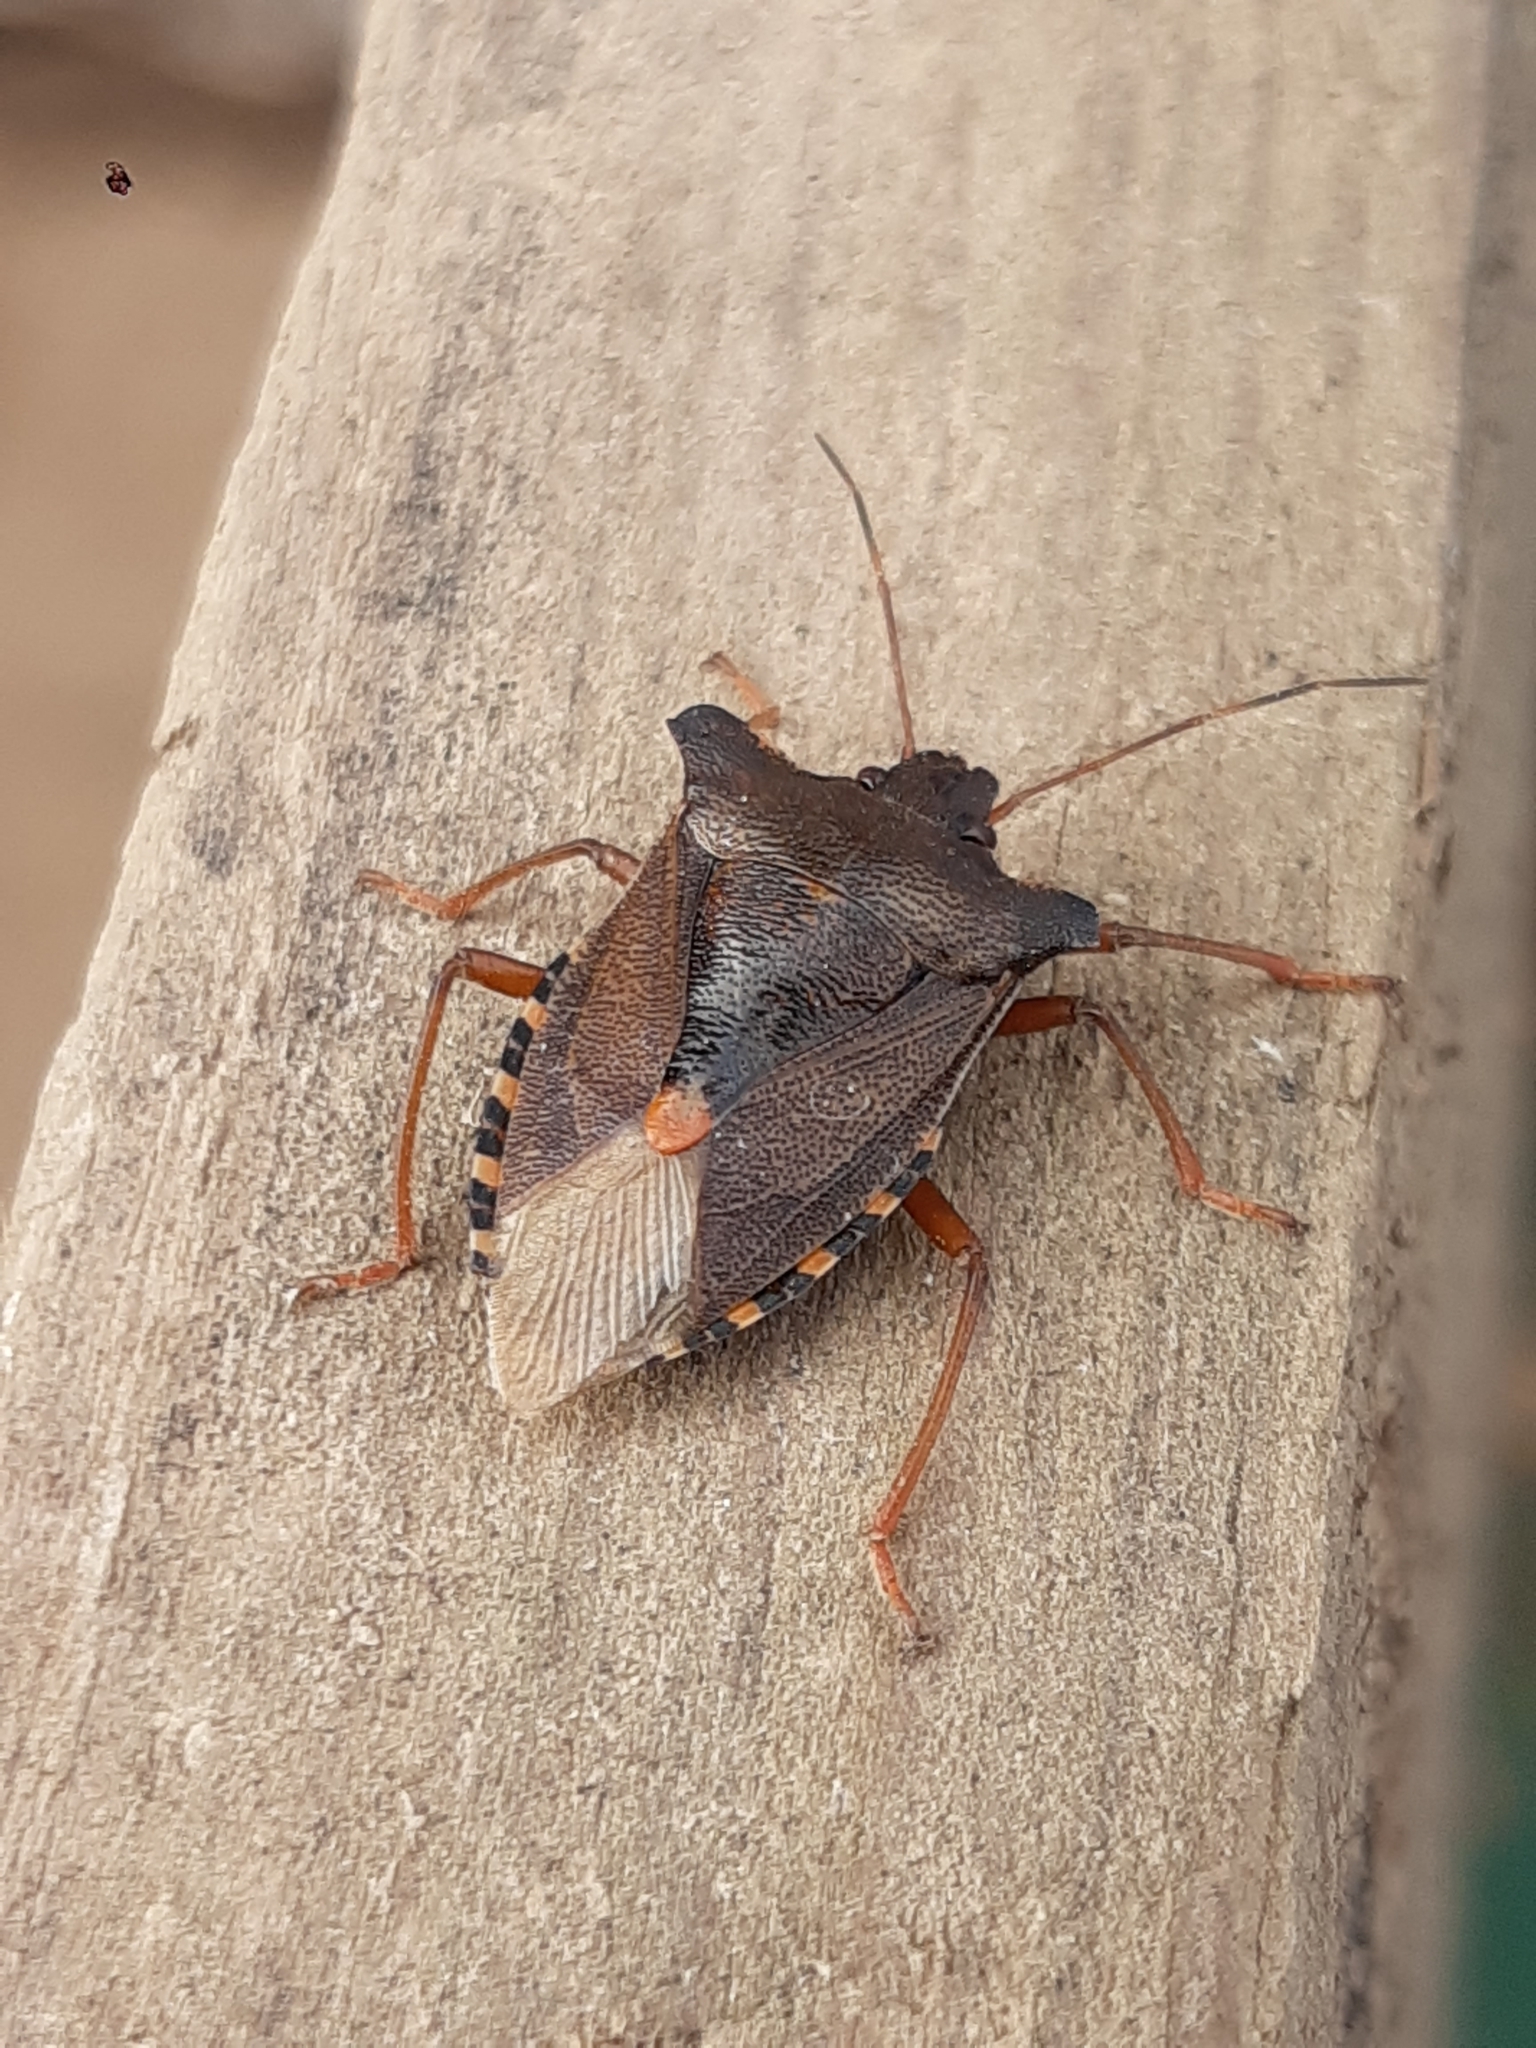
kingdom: Animalia
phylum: Arthropoda
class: Insecta
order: Hemiptera
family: Pentatomidae
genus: Pentatoma
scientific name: Pentatoma rufipes
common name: Forest bug
